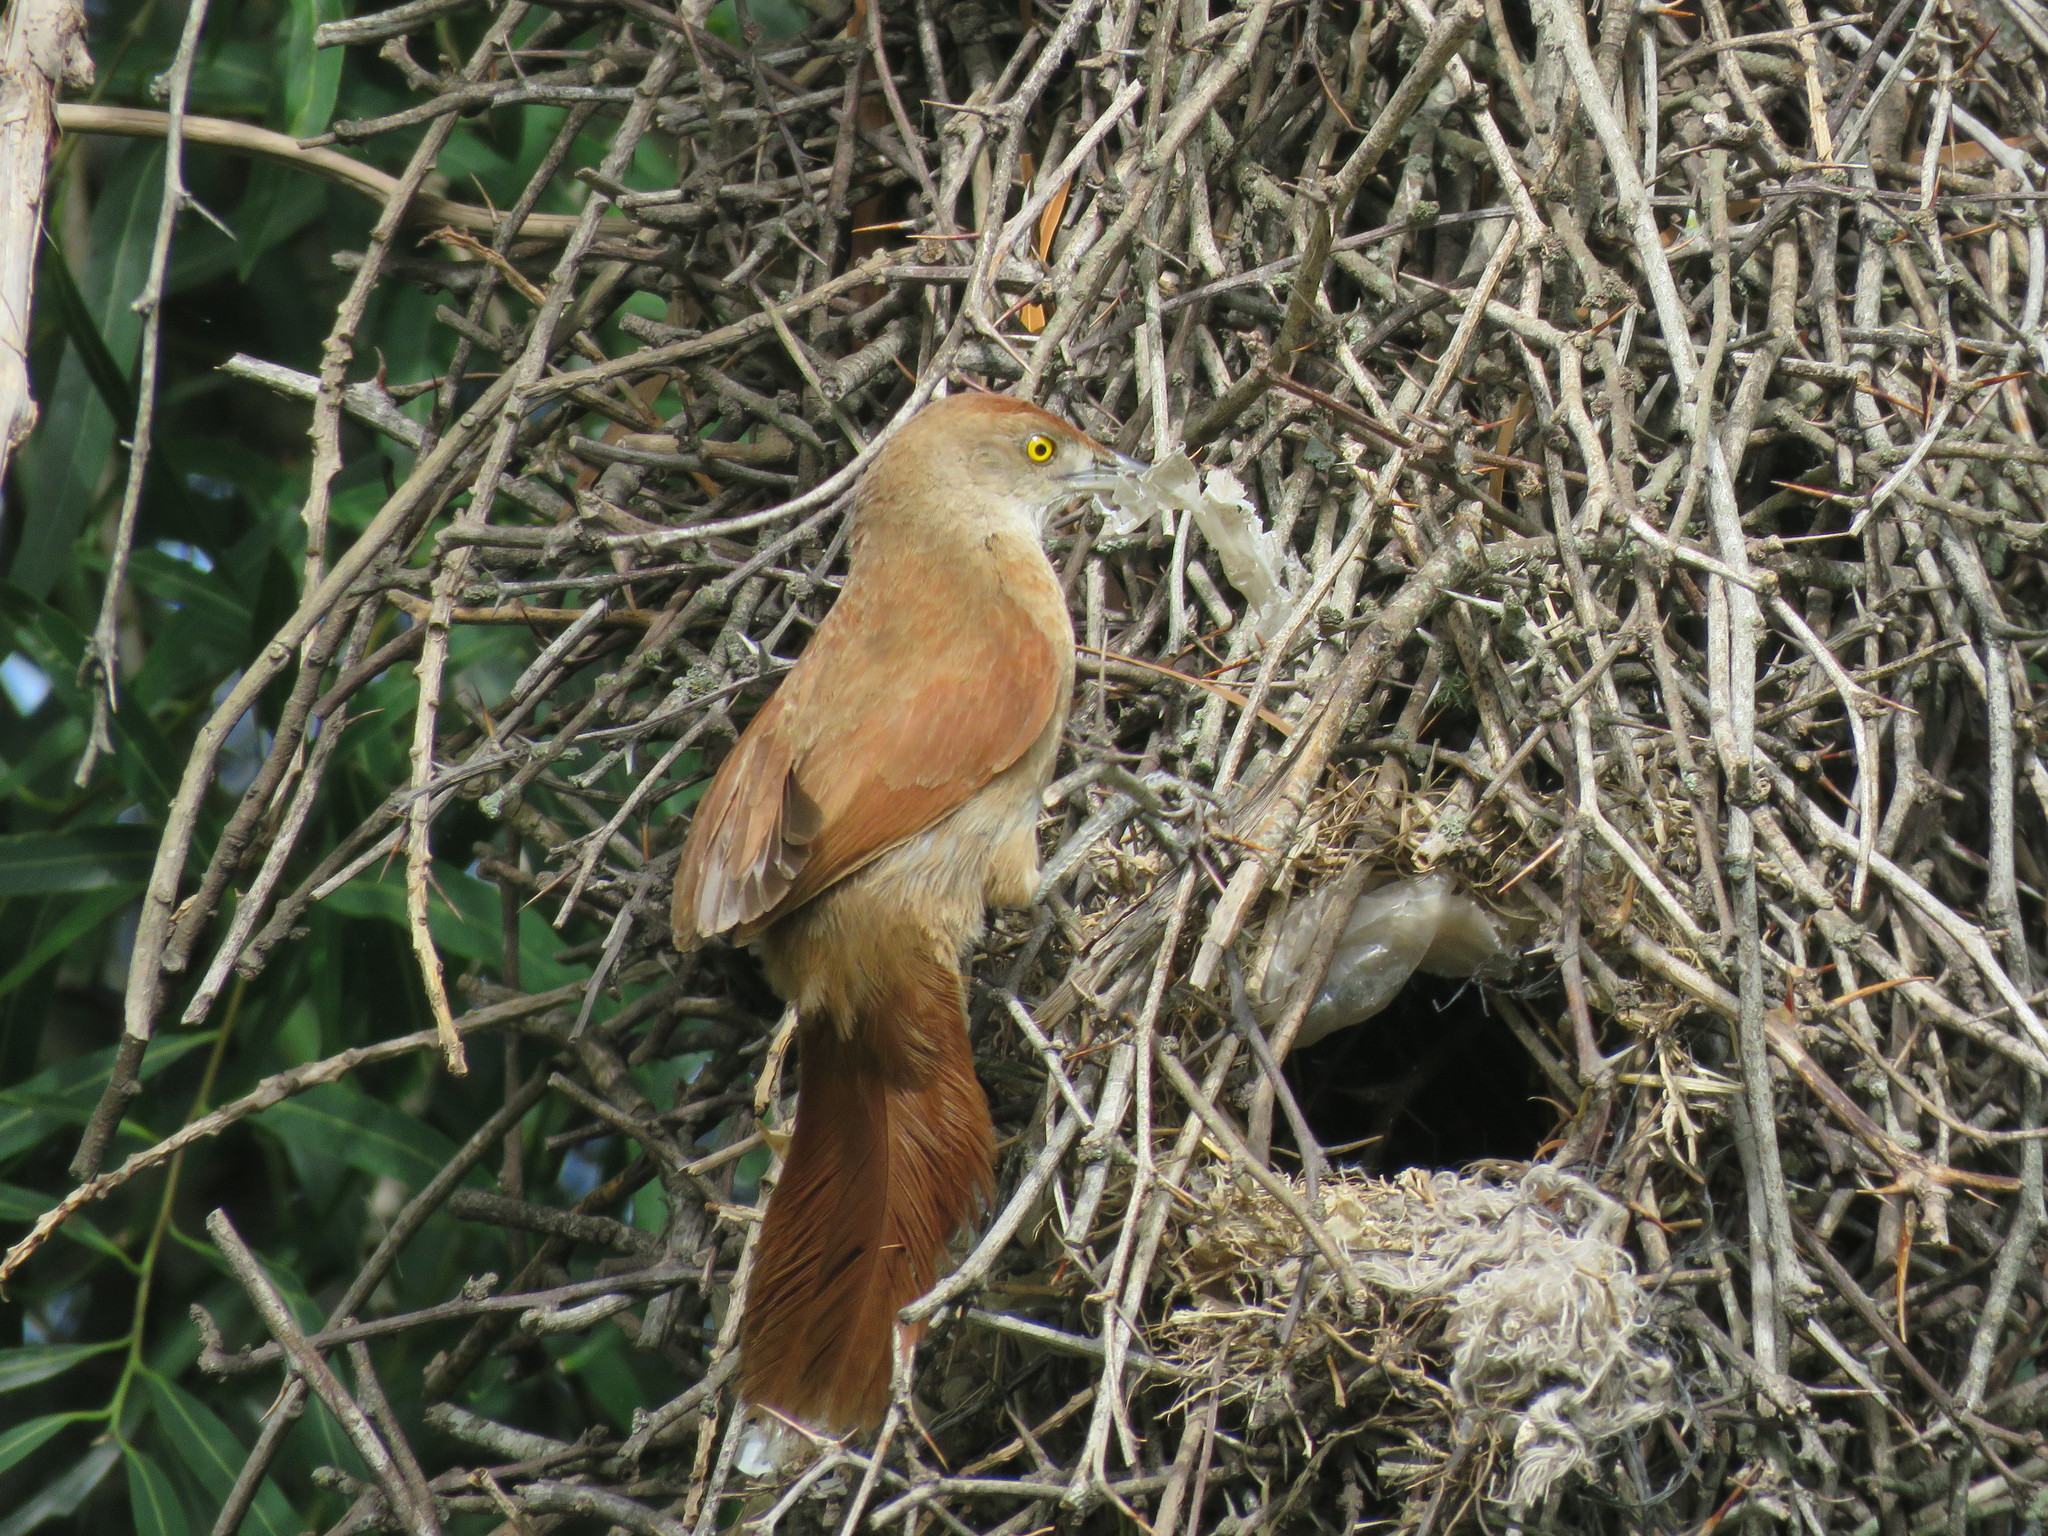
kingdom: Animalia
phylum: Chordata
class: Aves
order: Passeriformes
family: Furnariidae
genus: Phacellodomus
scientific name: Phacellodomus ruber
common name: Greater thornbird
